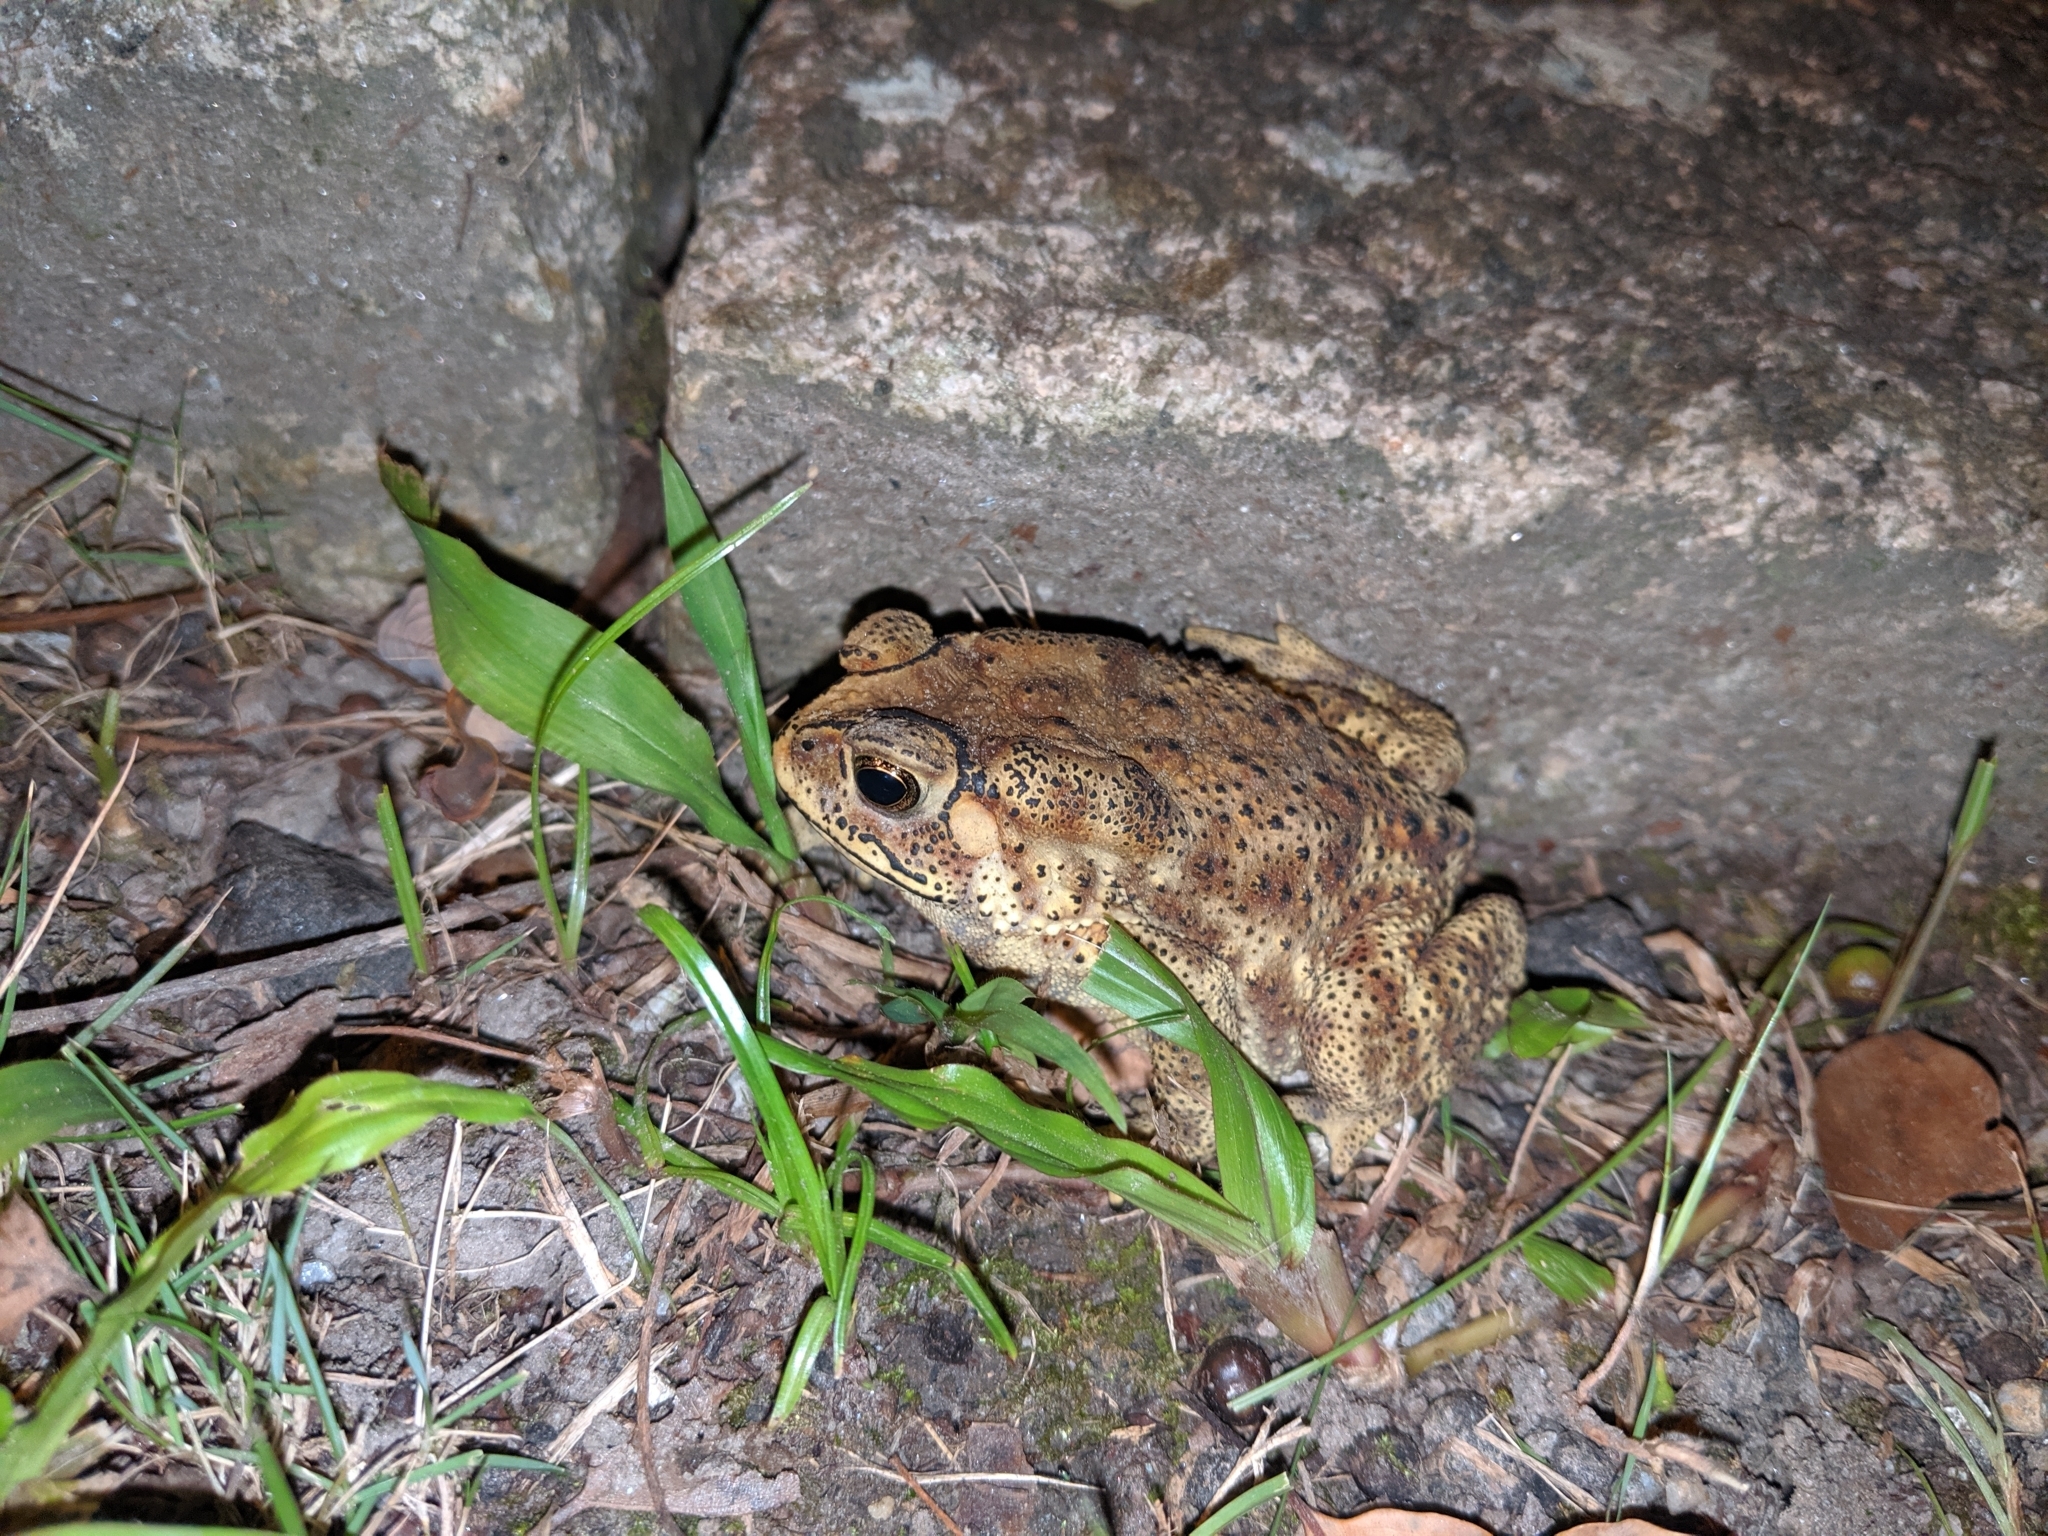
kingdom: Animalia
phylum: Chordata
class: Amphibia
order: Anura
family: Bufonidae
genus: Duttaphrynus
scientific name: Duttaphrynus melanostictus
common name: Common sunda toad
